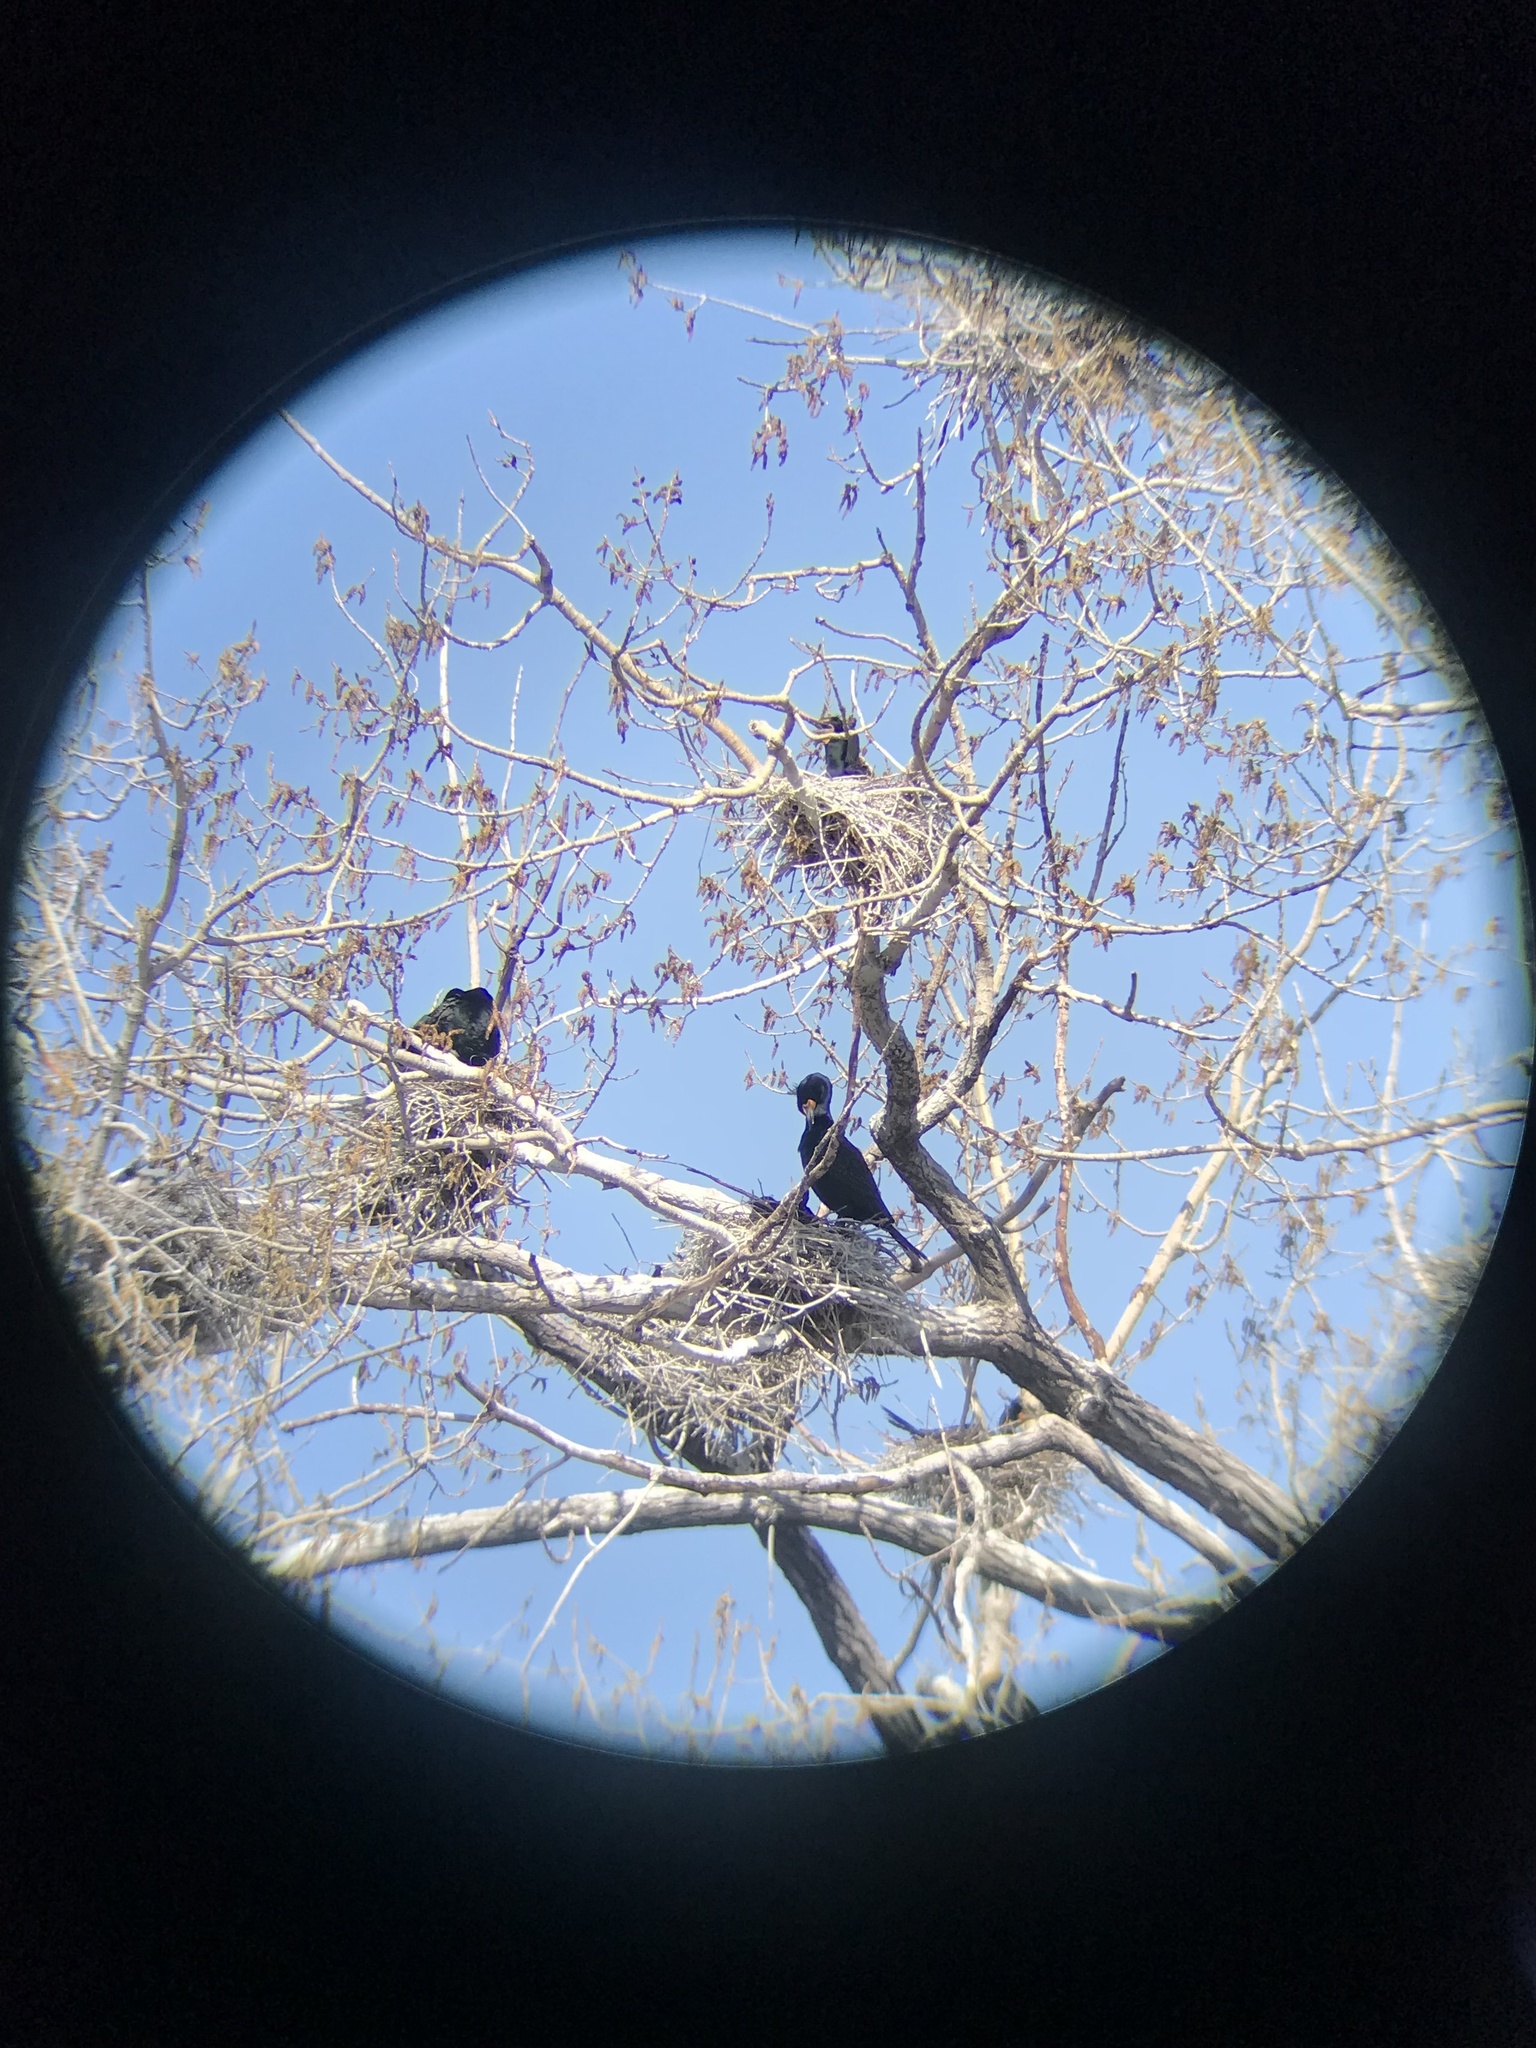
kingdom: Animalia
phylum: Chordata
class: Aves
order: Suliformes
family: Phalacrocoracidae
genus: Phalacrocorax
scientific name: Phalacrocorax auritus
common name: Double-crested cormorant
